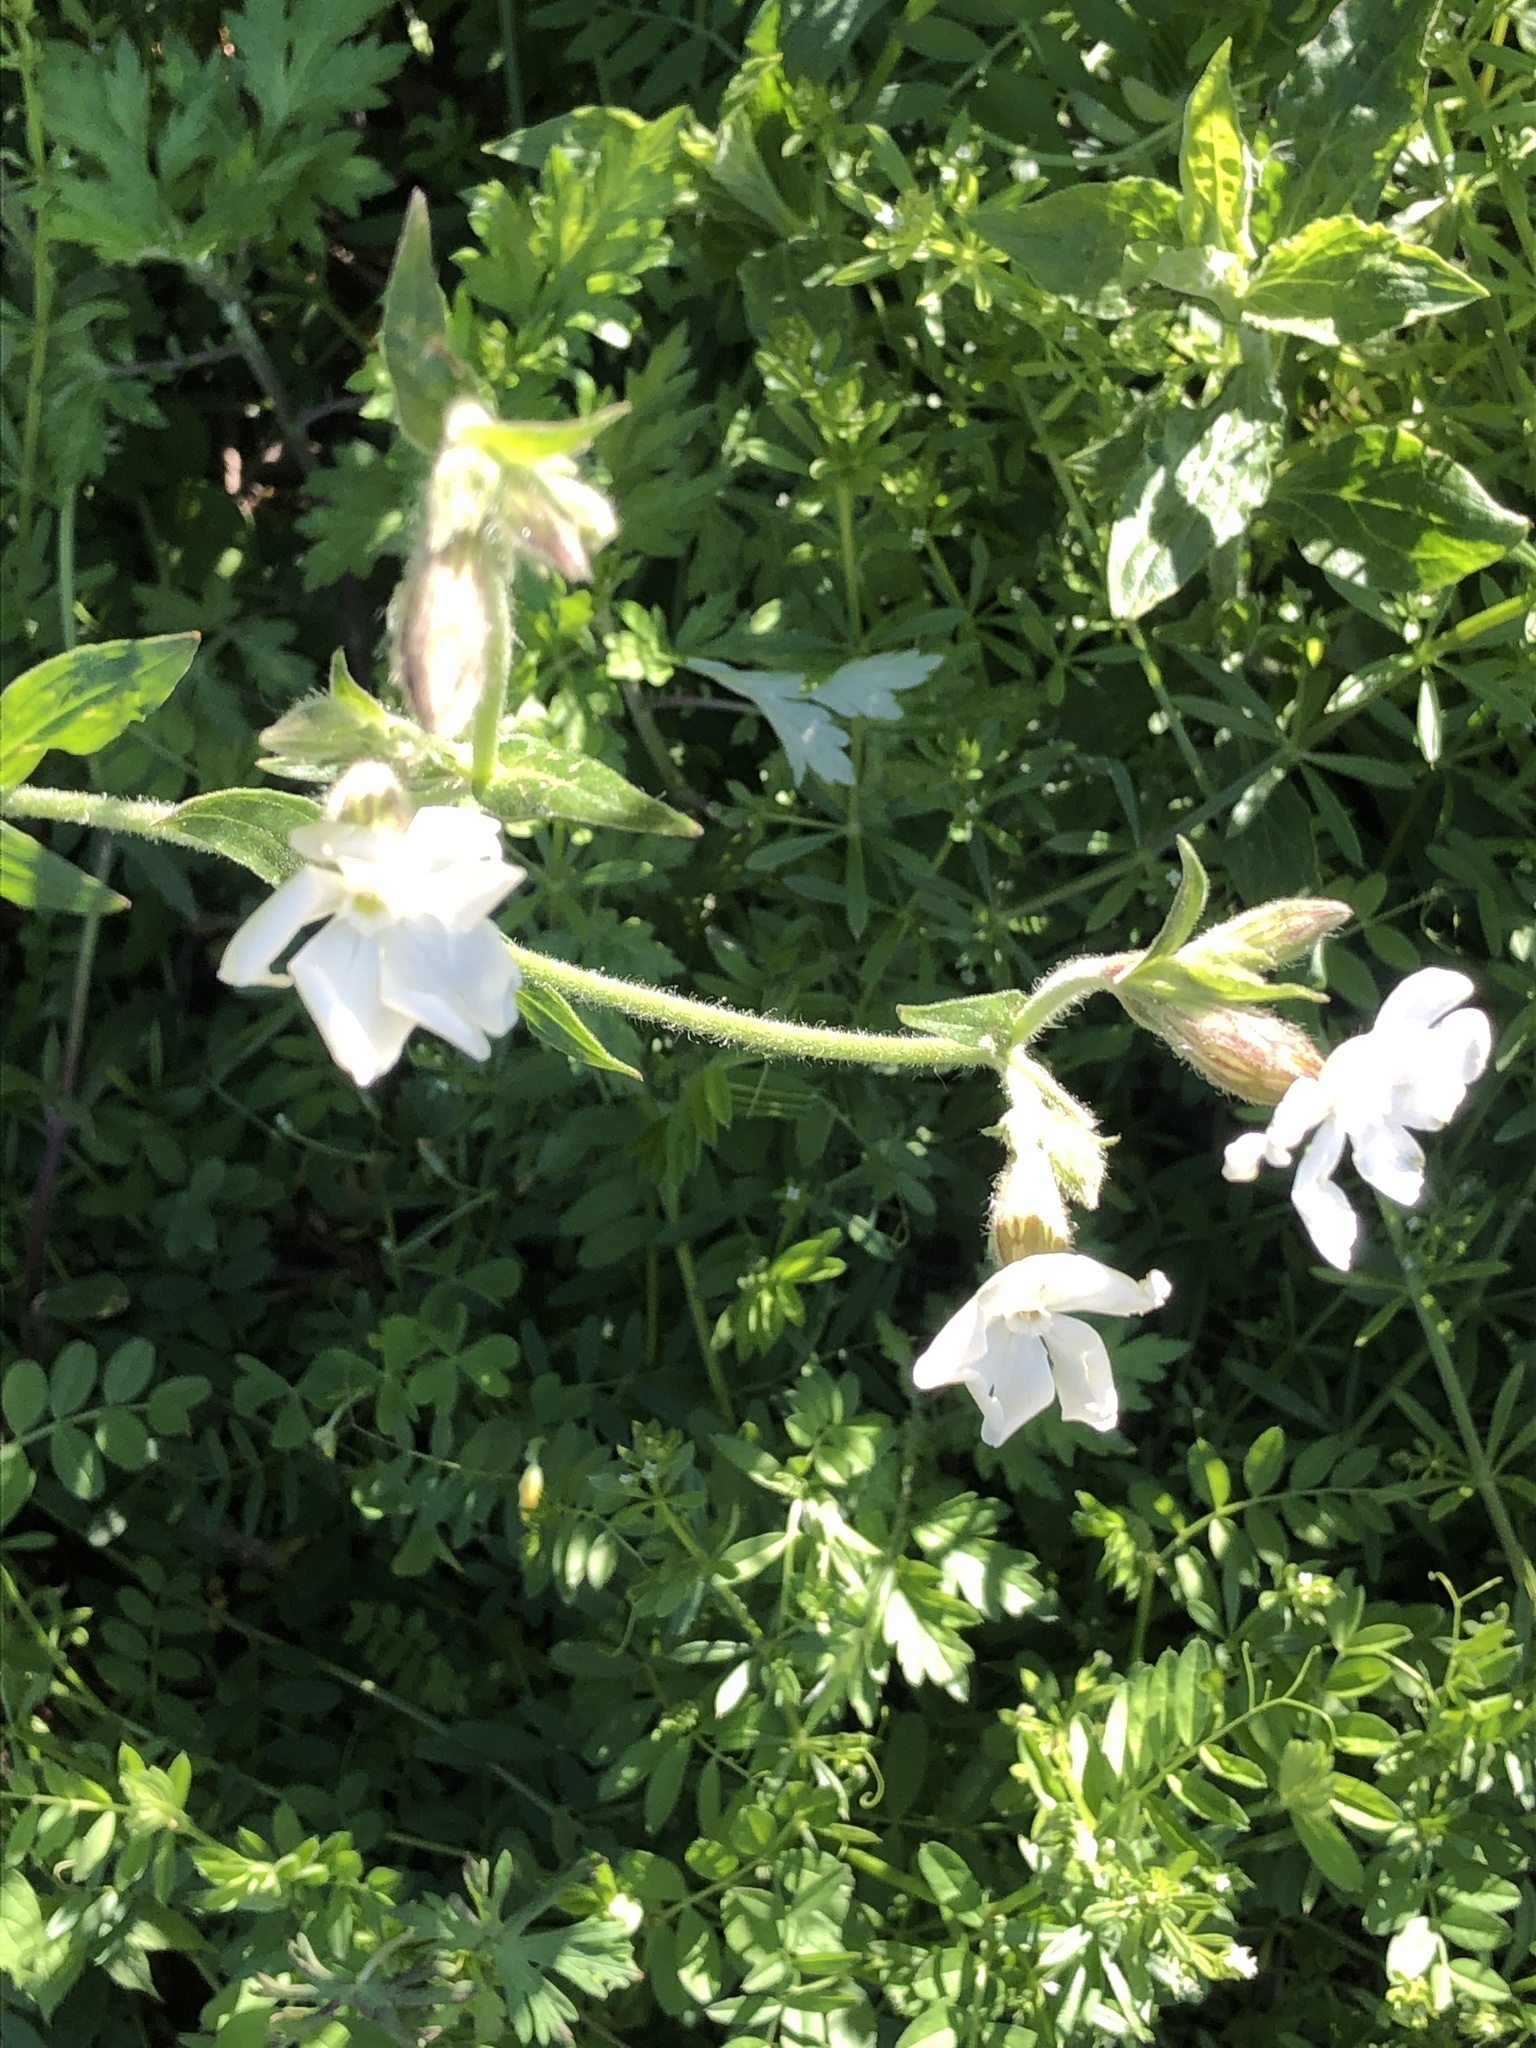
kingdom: Plantae
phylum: Tracheophyta
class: Magnoliopsida
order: Caryophyllales
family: Caryophyllaceae
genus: Silene
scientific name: Silene latifolia
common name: White campion
